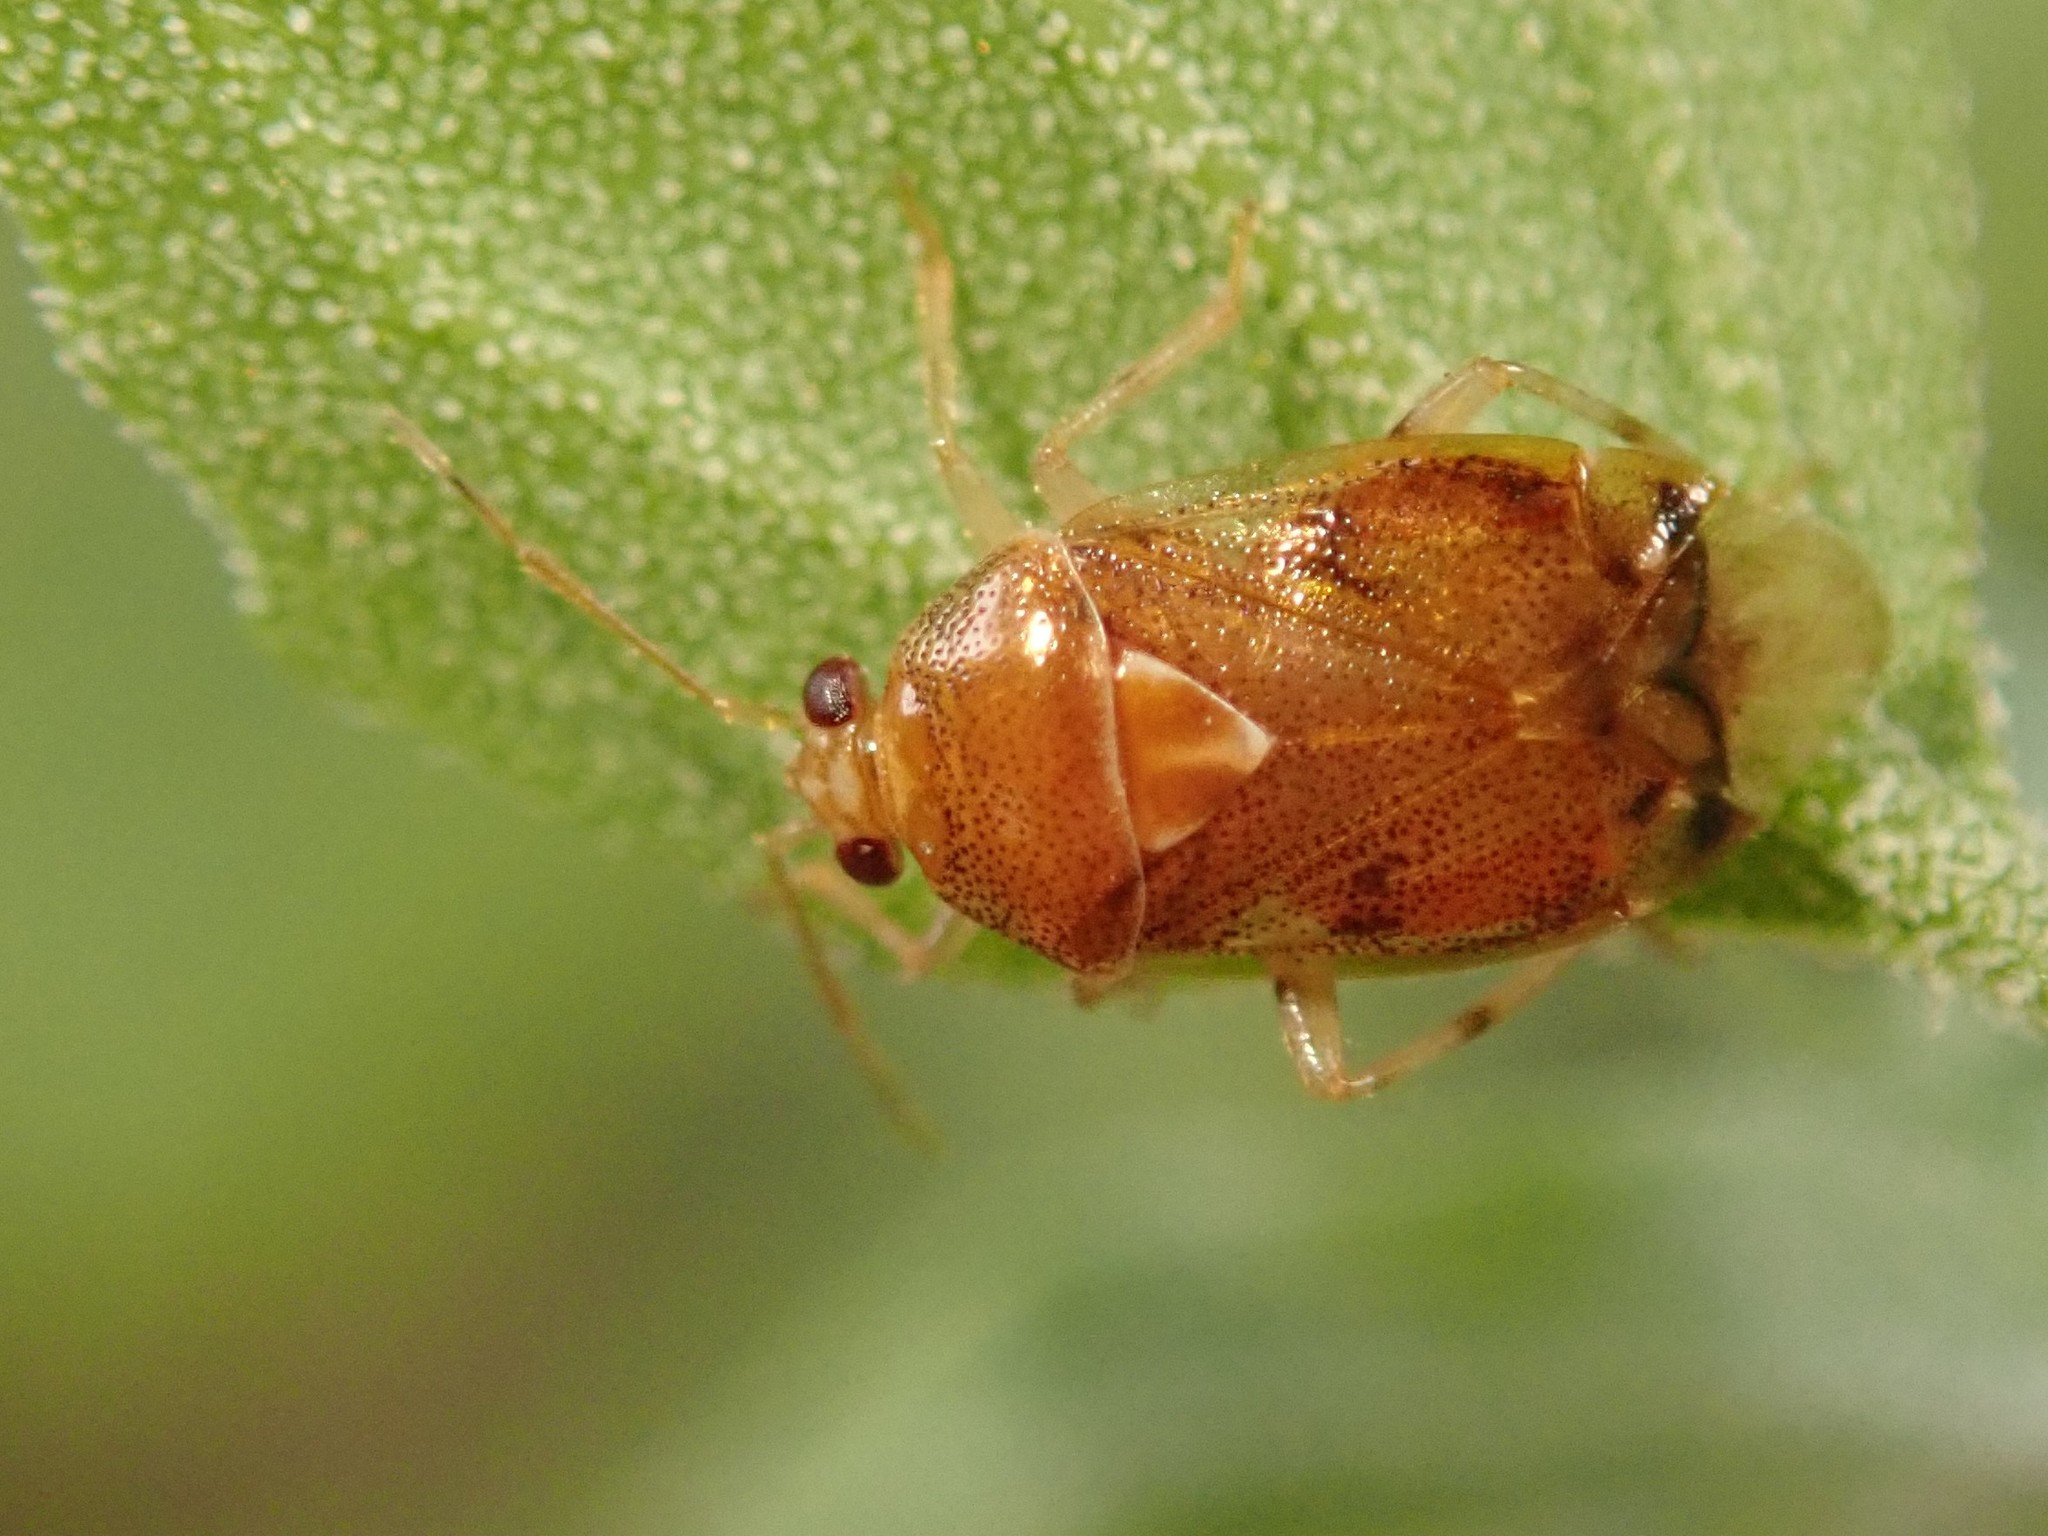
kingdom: Animalia
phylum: Arthropoda
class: Insecta
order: Hemiptera
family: Miridae
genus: Deraeocoris
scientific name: Deraeocoris lutescens
